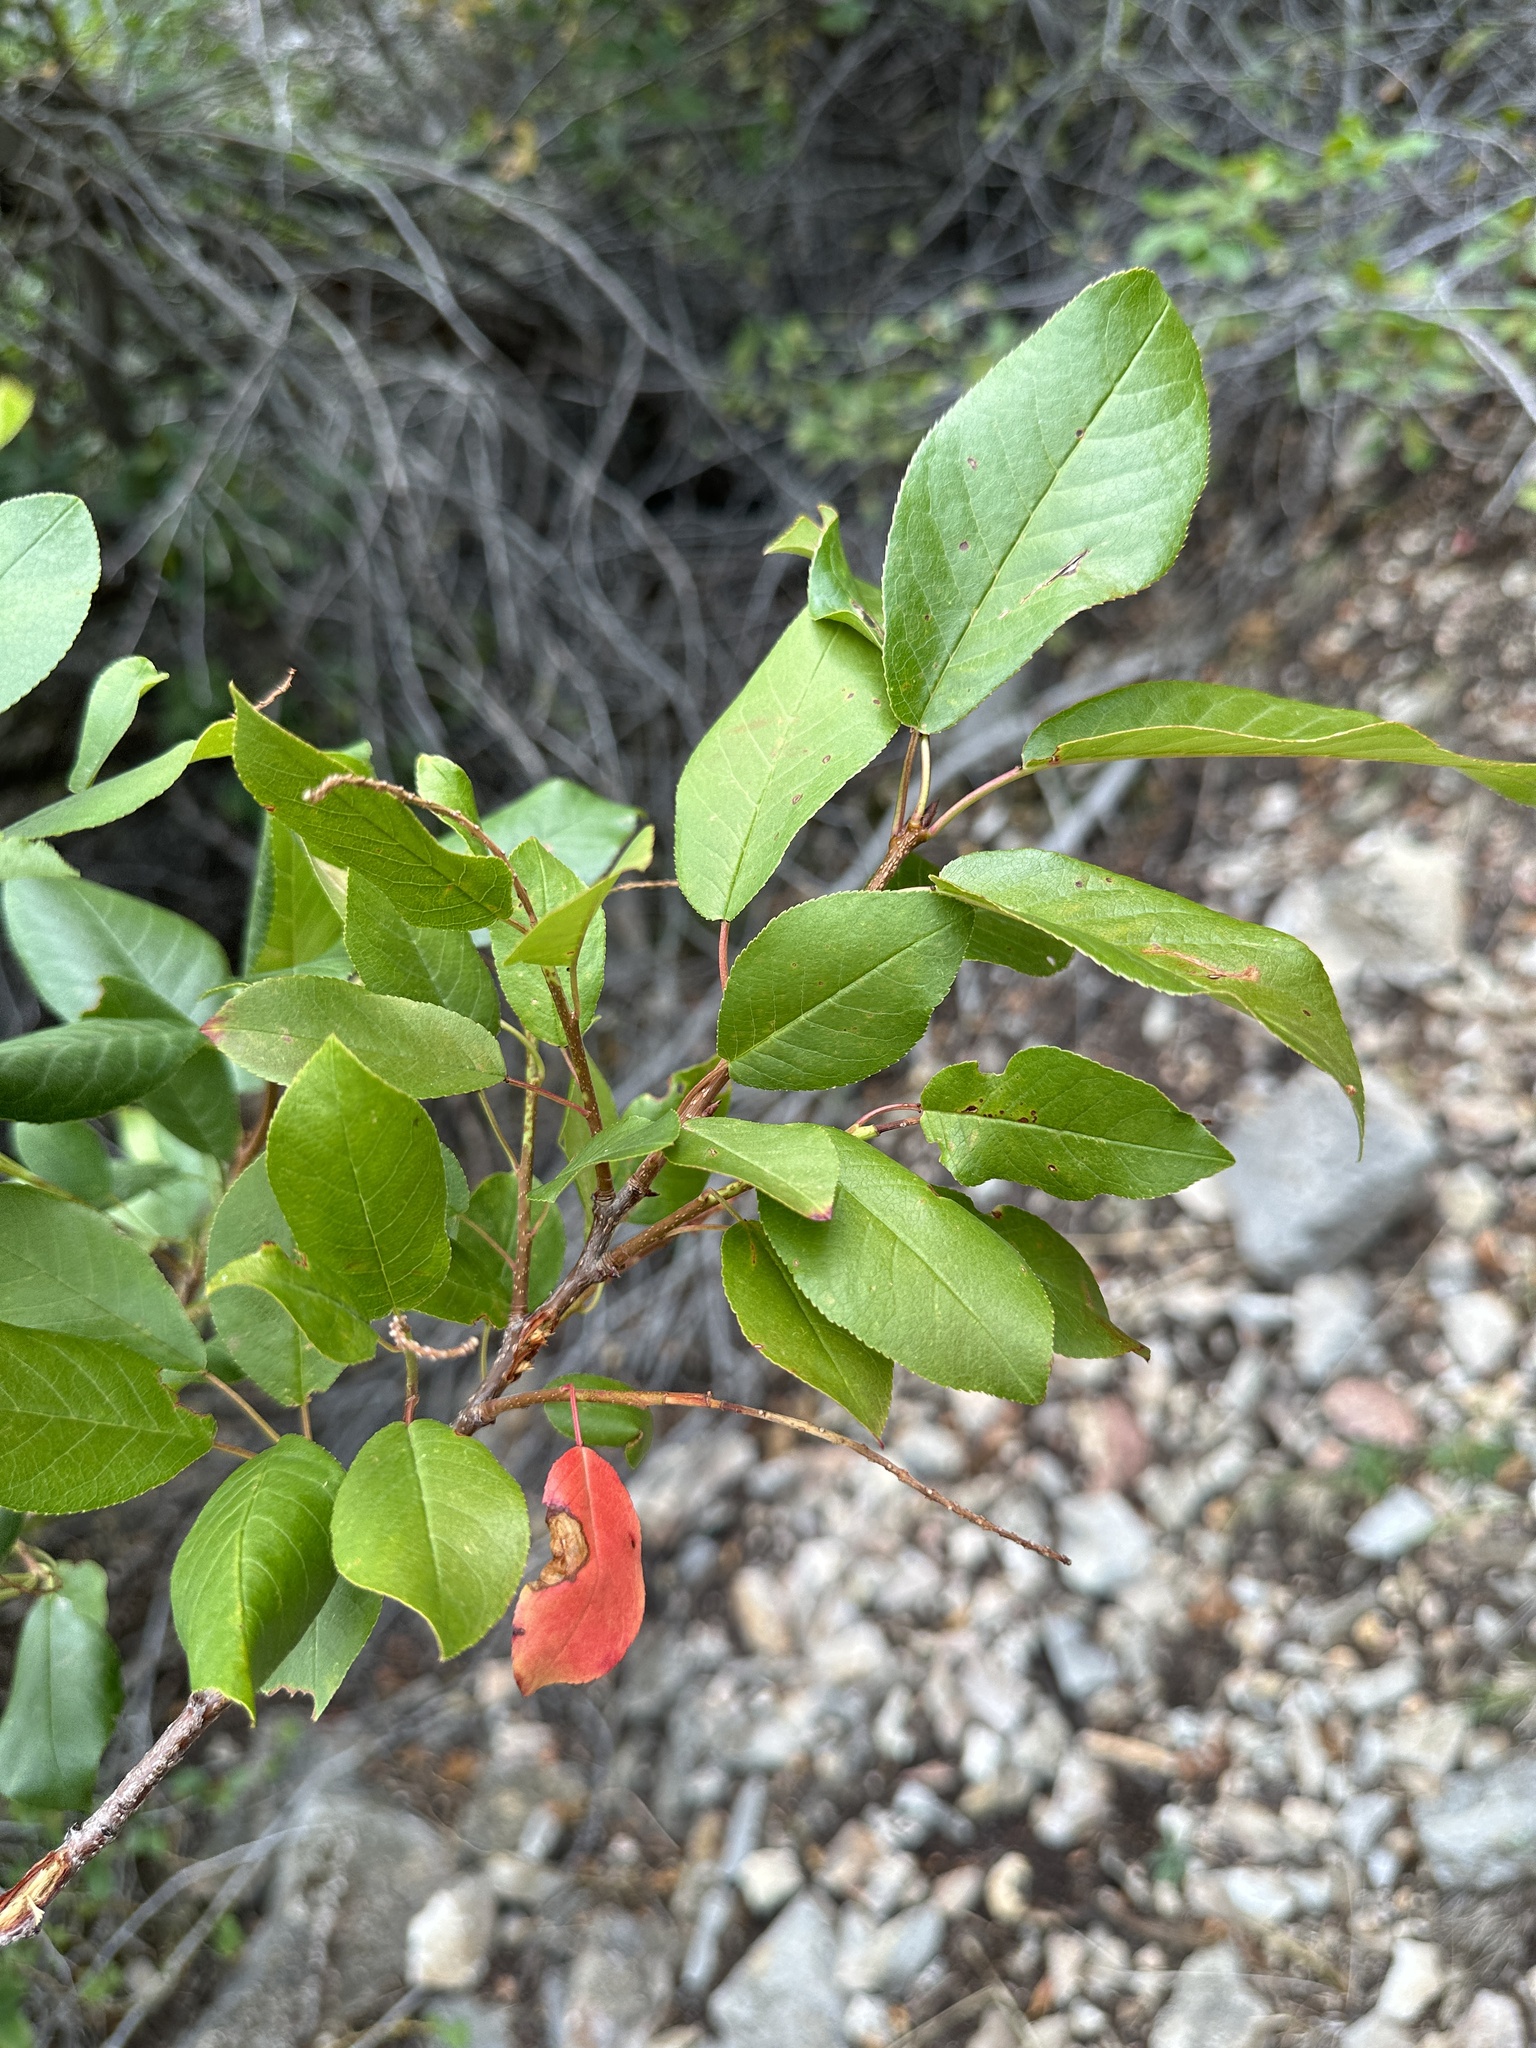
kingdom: Plantae
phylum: Tracheophyta
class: Magnoliopsida
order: Rosales
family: Rosaceae
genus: Prunus
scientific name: Prunus virginiana
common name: Chokecherry
